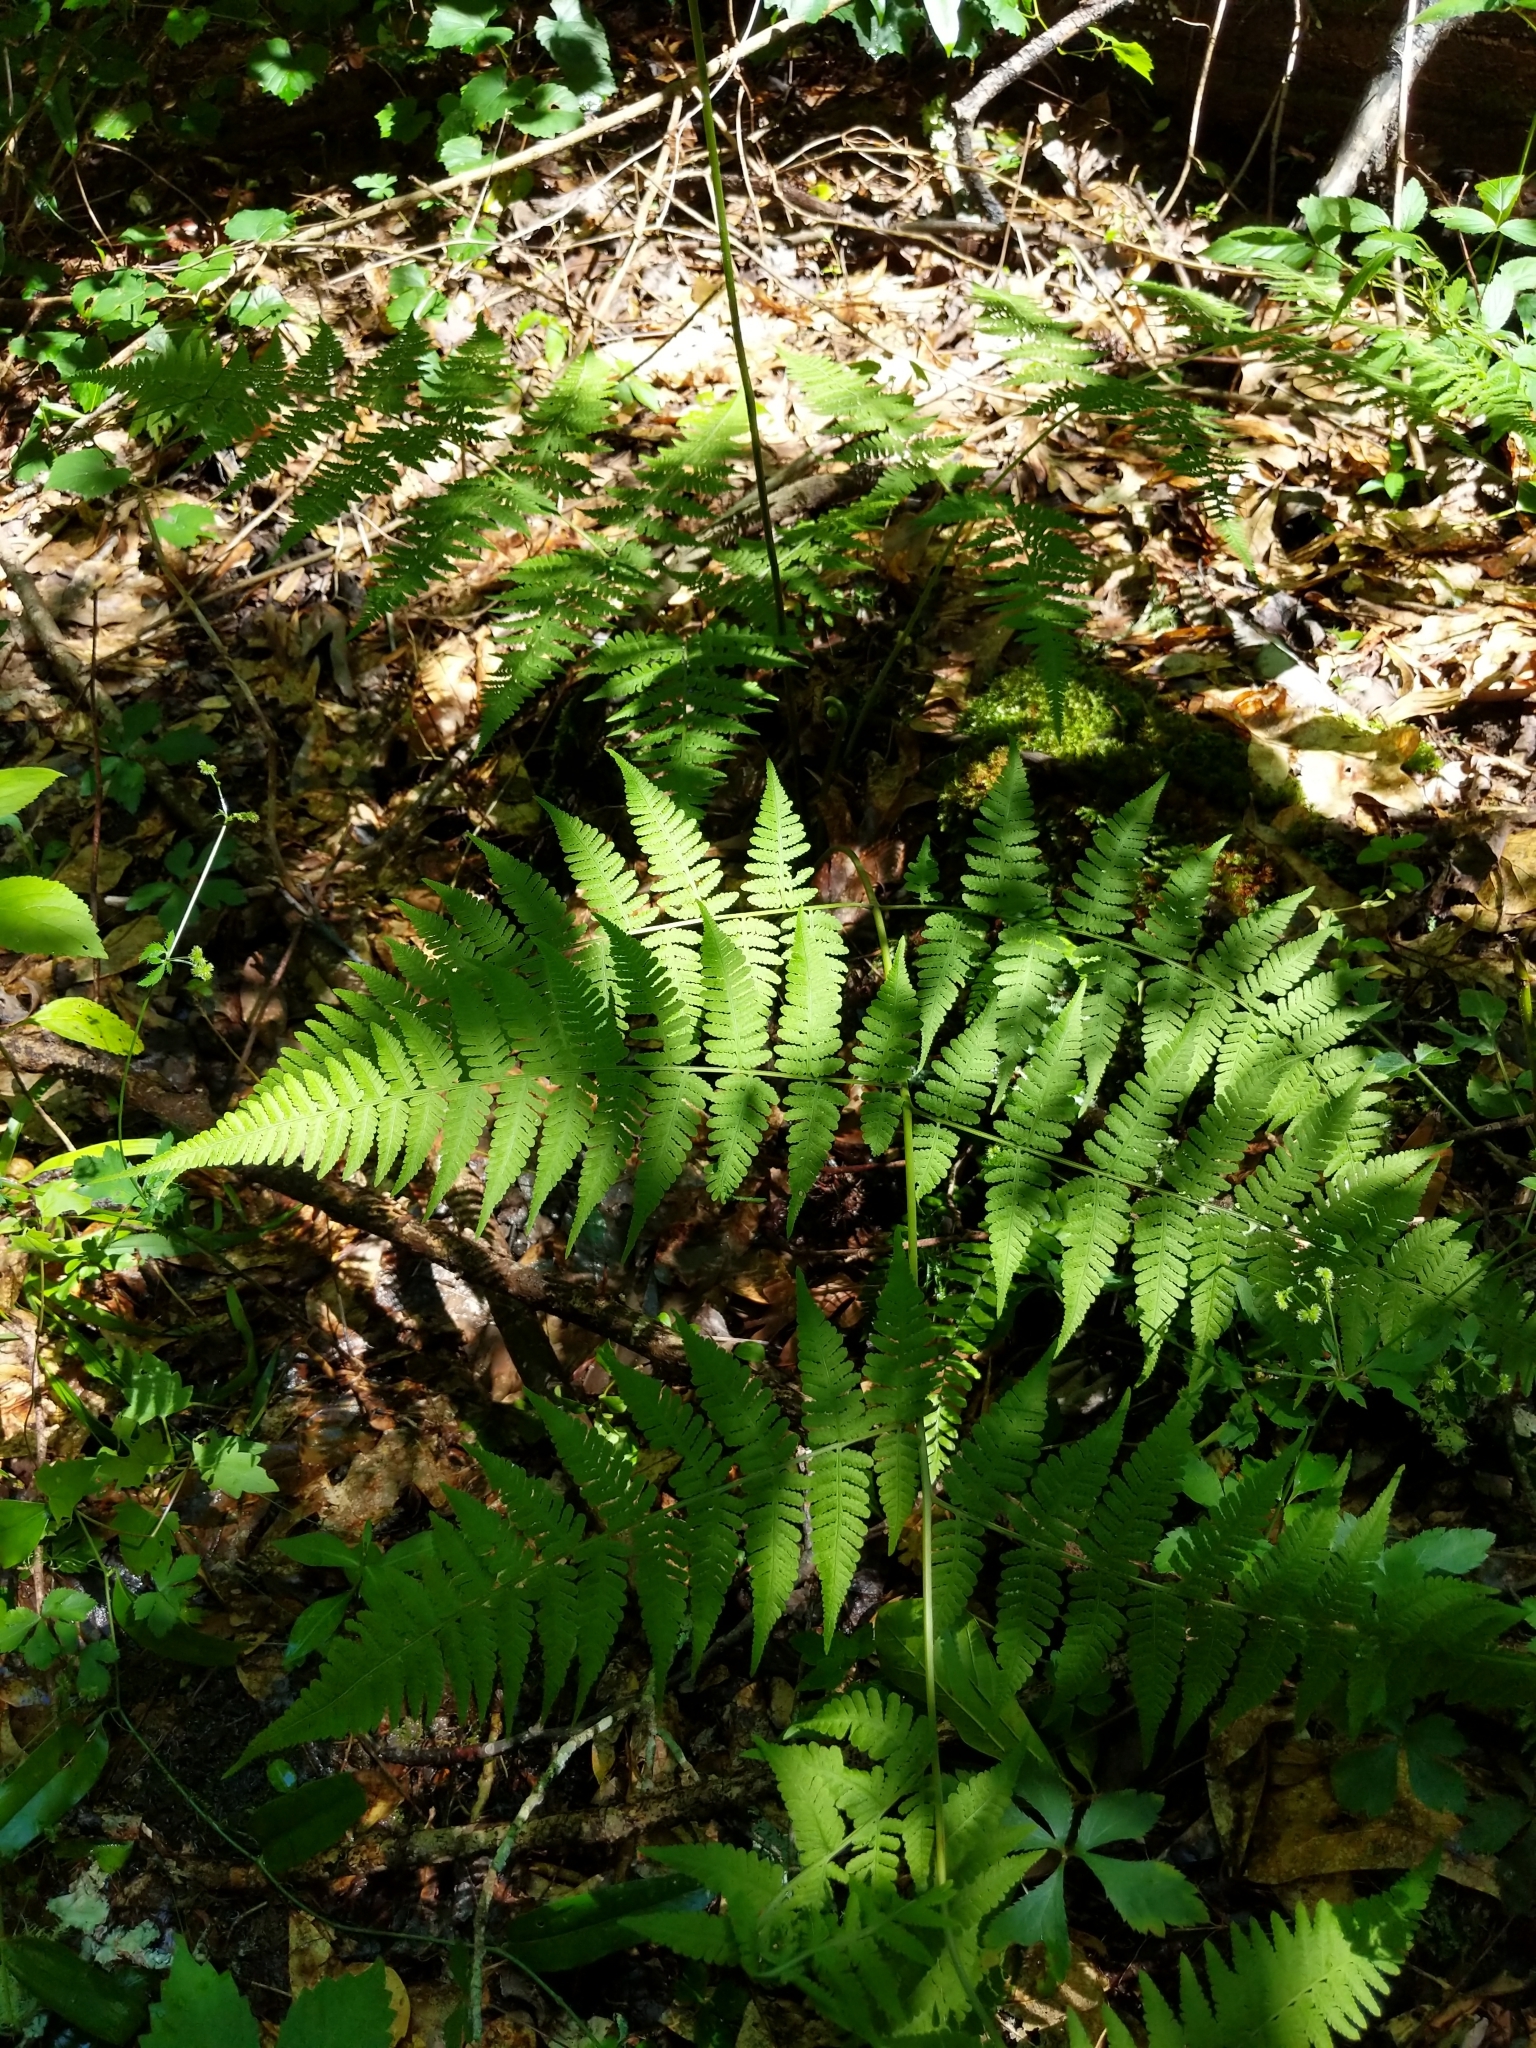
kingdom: Plantae
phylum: Tracheophyta
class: Polypodiopsida
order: Polypodiales
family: Athyriaceae
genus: Athyrium
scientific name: Athyrium asplenioides
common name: Southern lady fern
